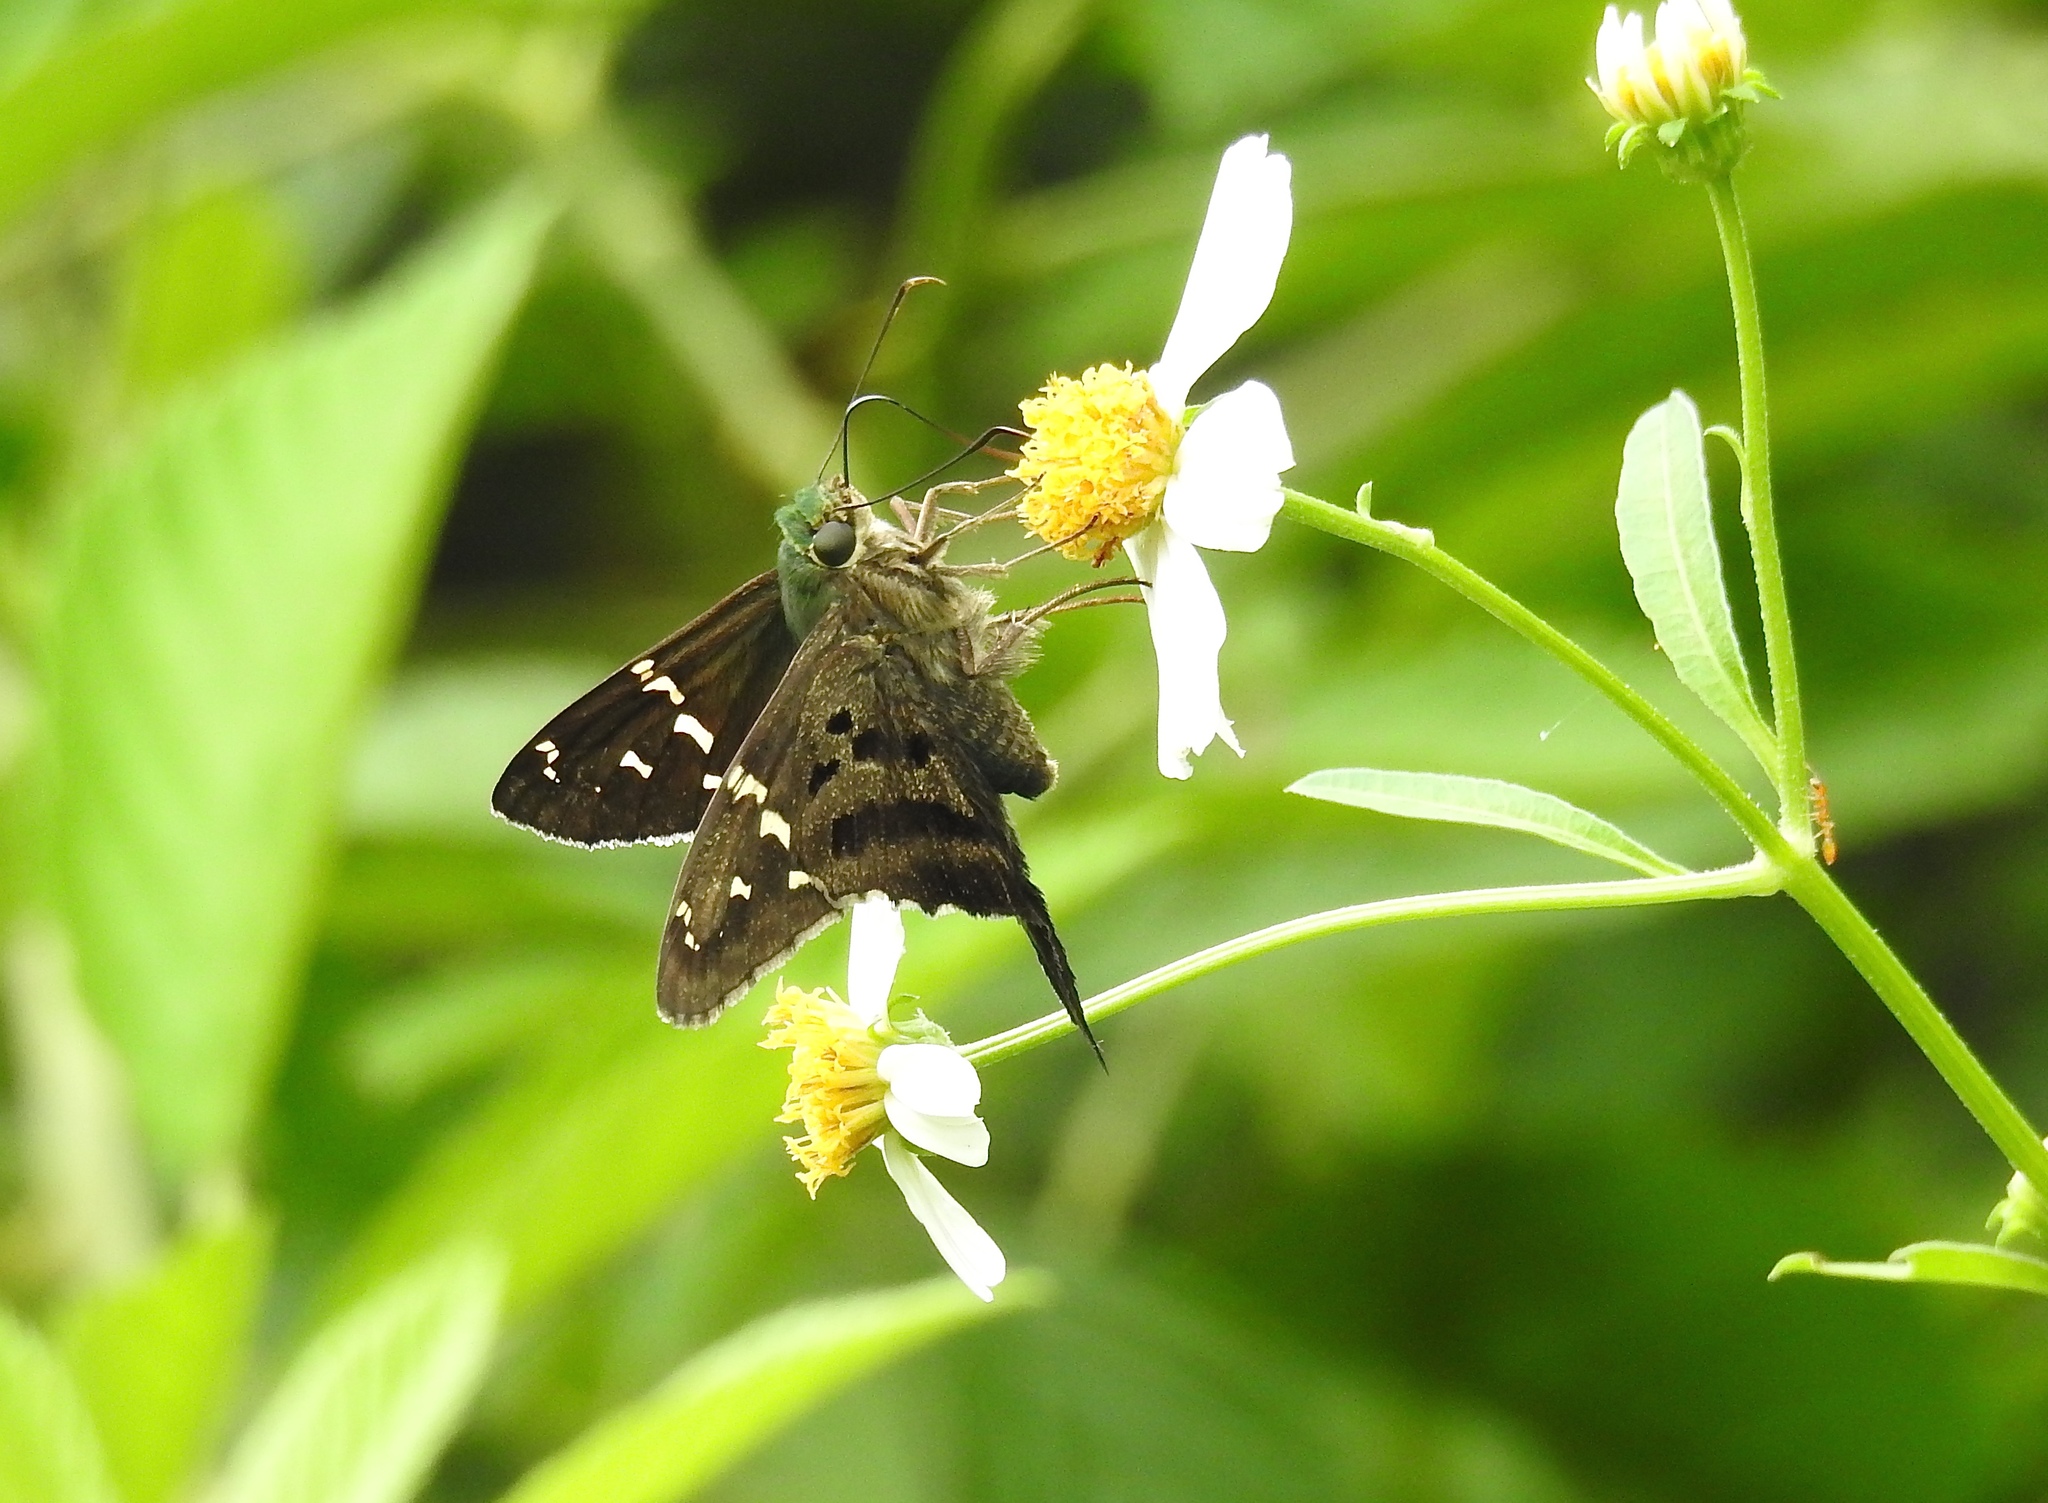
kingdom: Animalia
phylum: Arthropoda
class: Insecta
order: Lepidoptera
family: Hesperiidae
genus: Urbanus
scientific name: Urbanus proteus
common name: Long-tailed skipper
